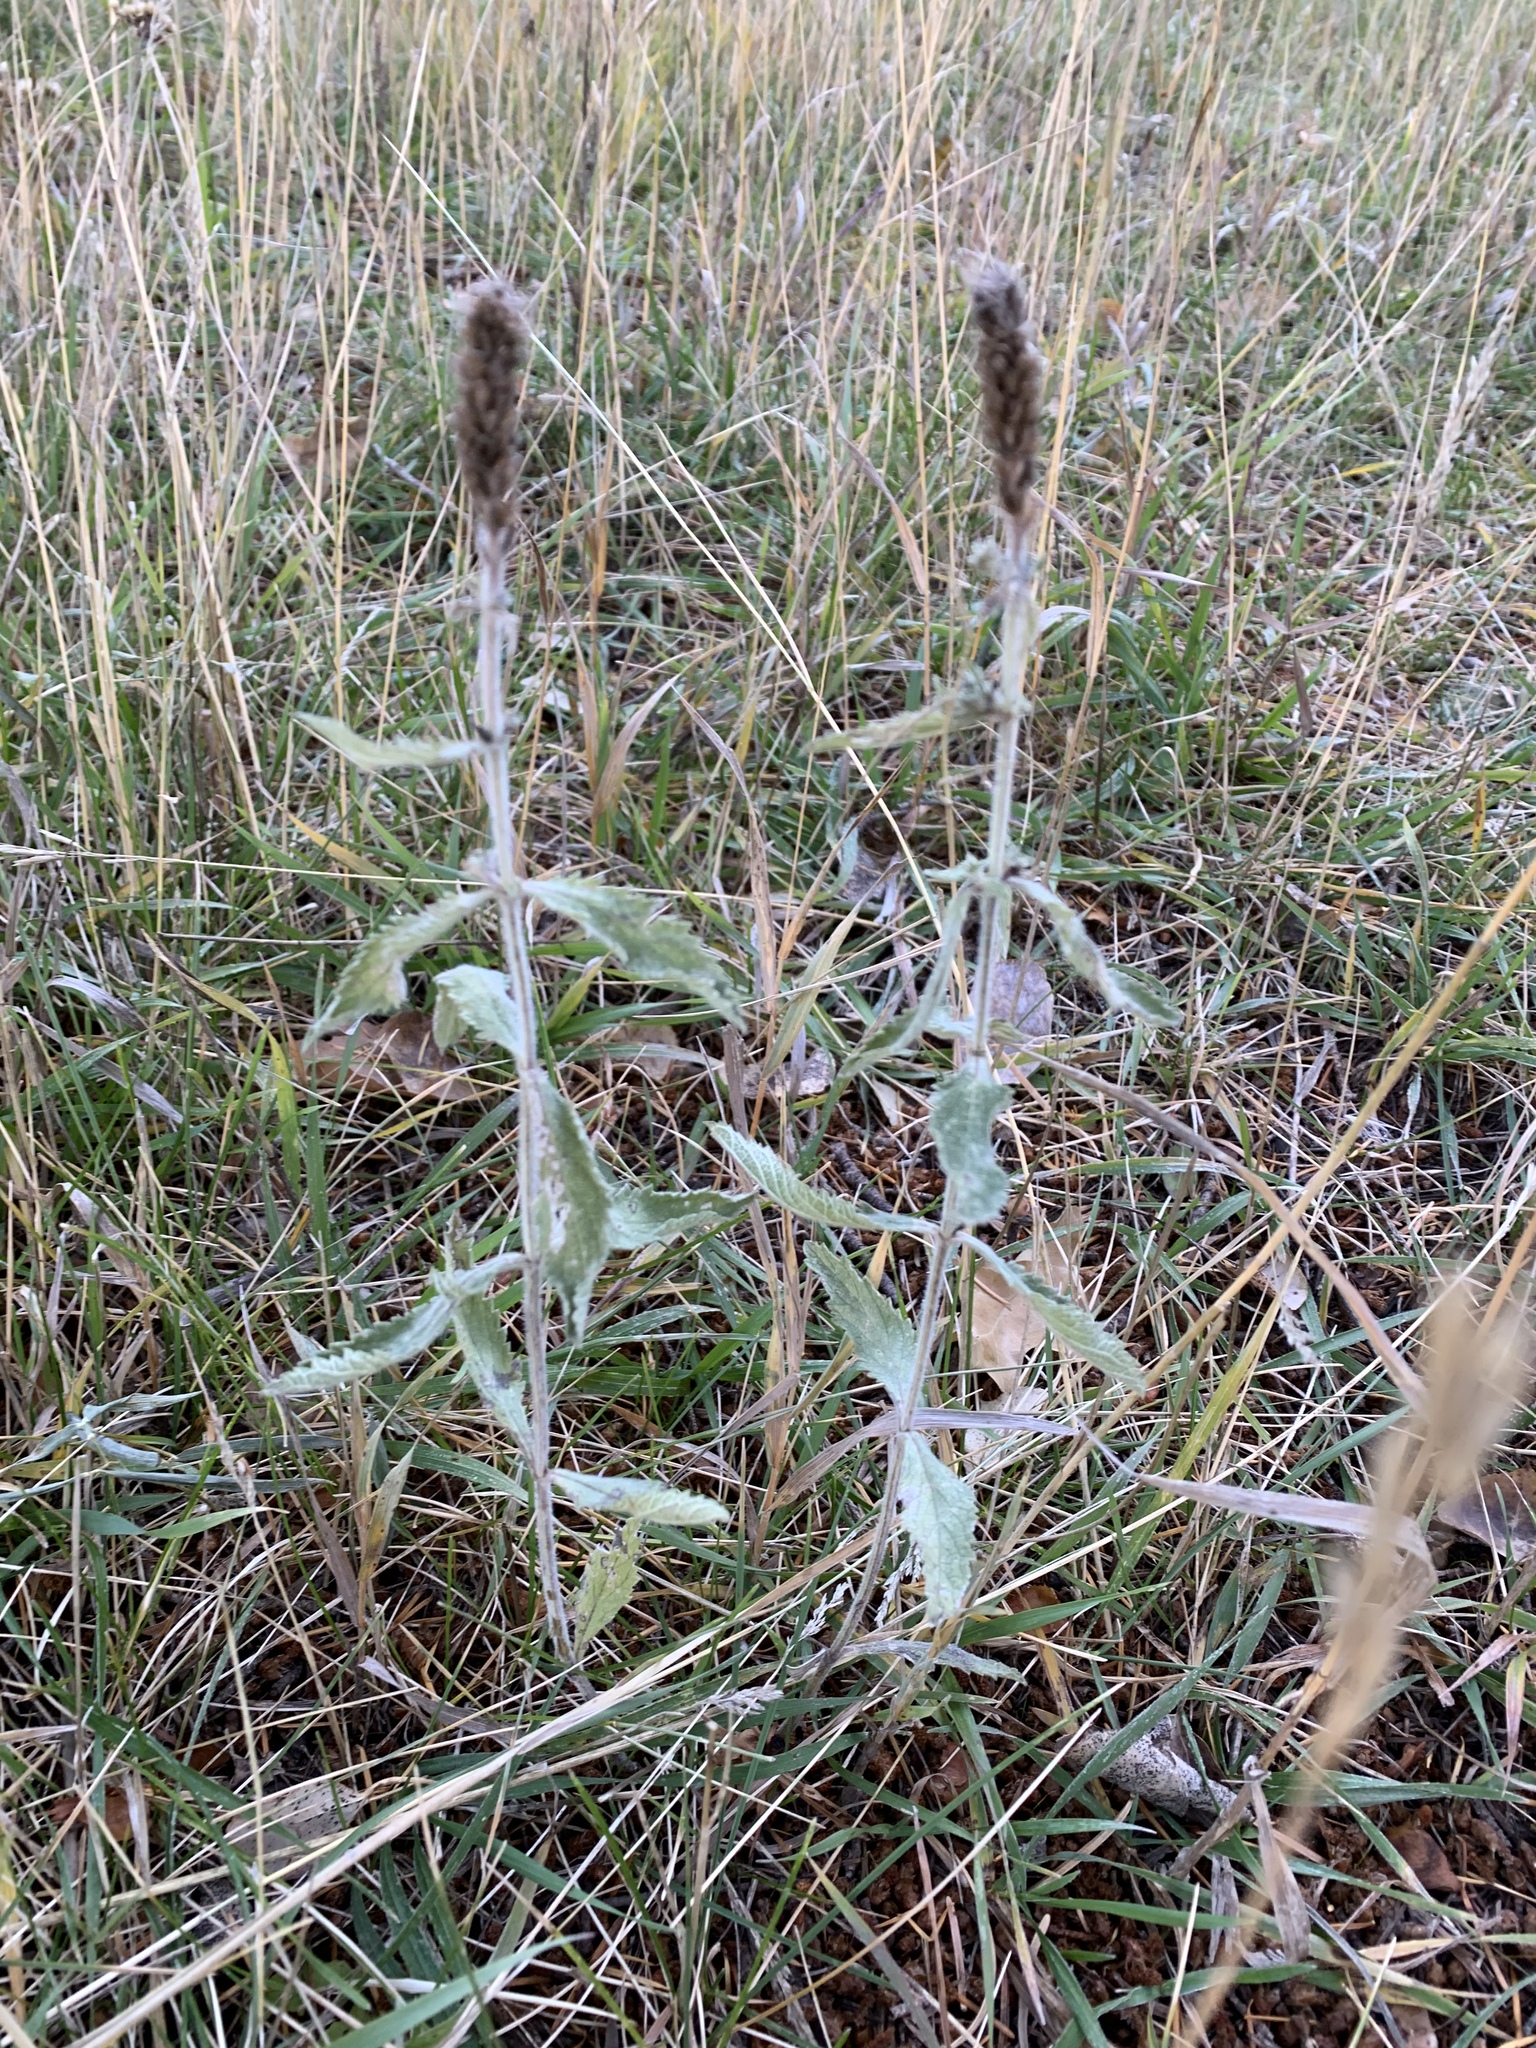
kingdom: Plantae
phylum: Tracheophyta
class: Magnoliopsida
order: Lamiales
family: Verbenaceae
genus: Verbena
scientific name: Verbena macdougalii
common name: New mexico vervain
